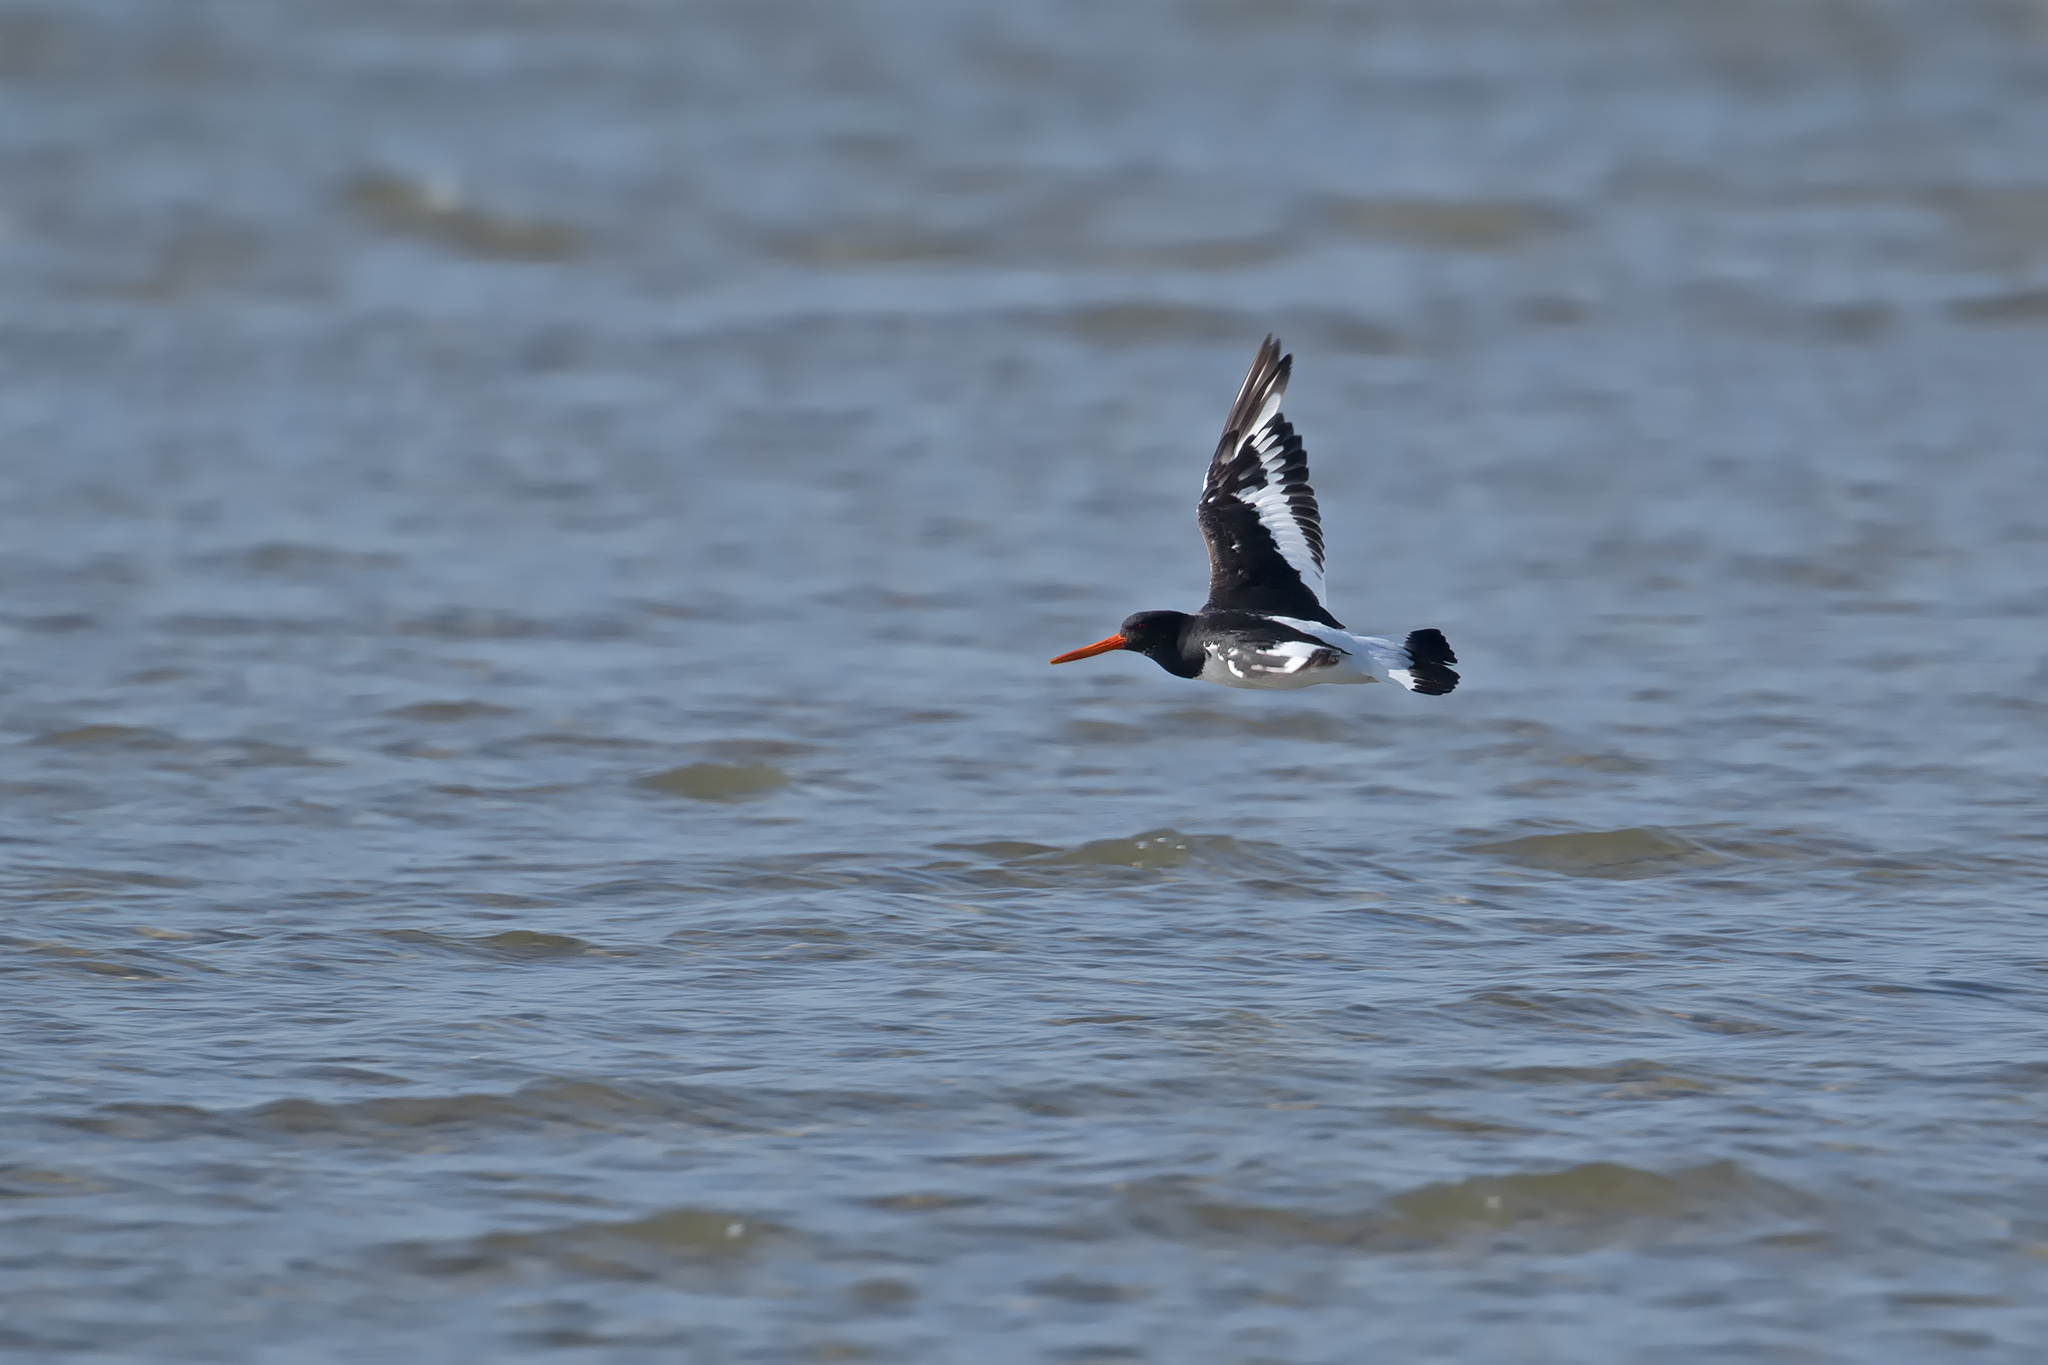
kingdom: Animalia
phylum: Chordata
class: Aves
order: Charadriiformes
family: Haematopodidae
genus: Haematopus
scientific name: Haematopus ostralegus
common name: Eurasian oystercatcher
